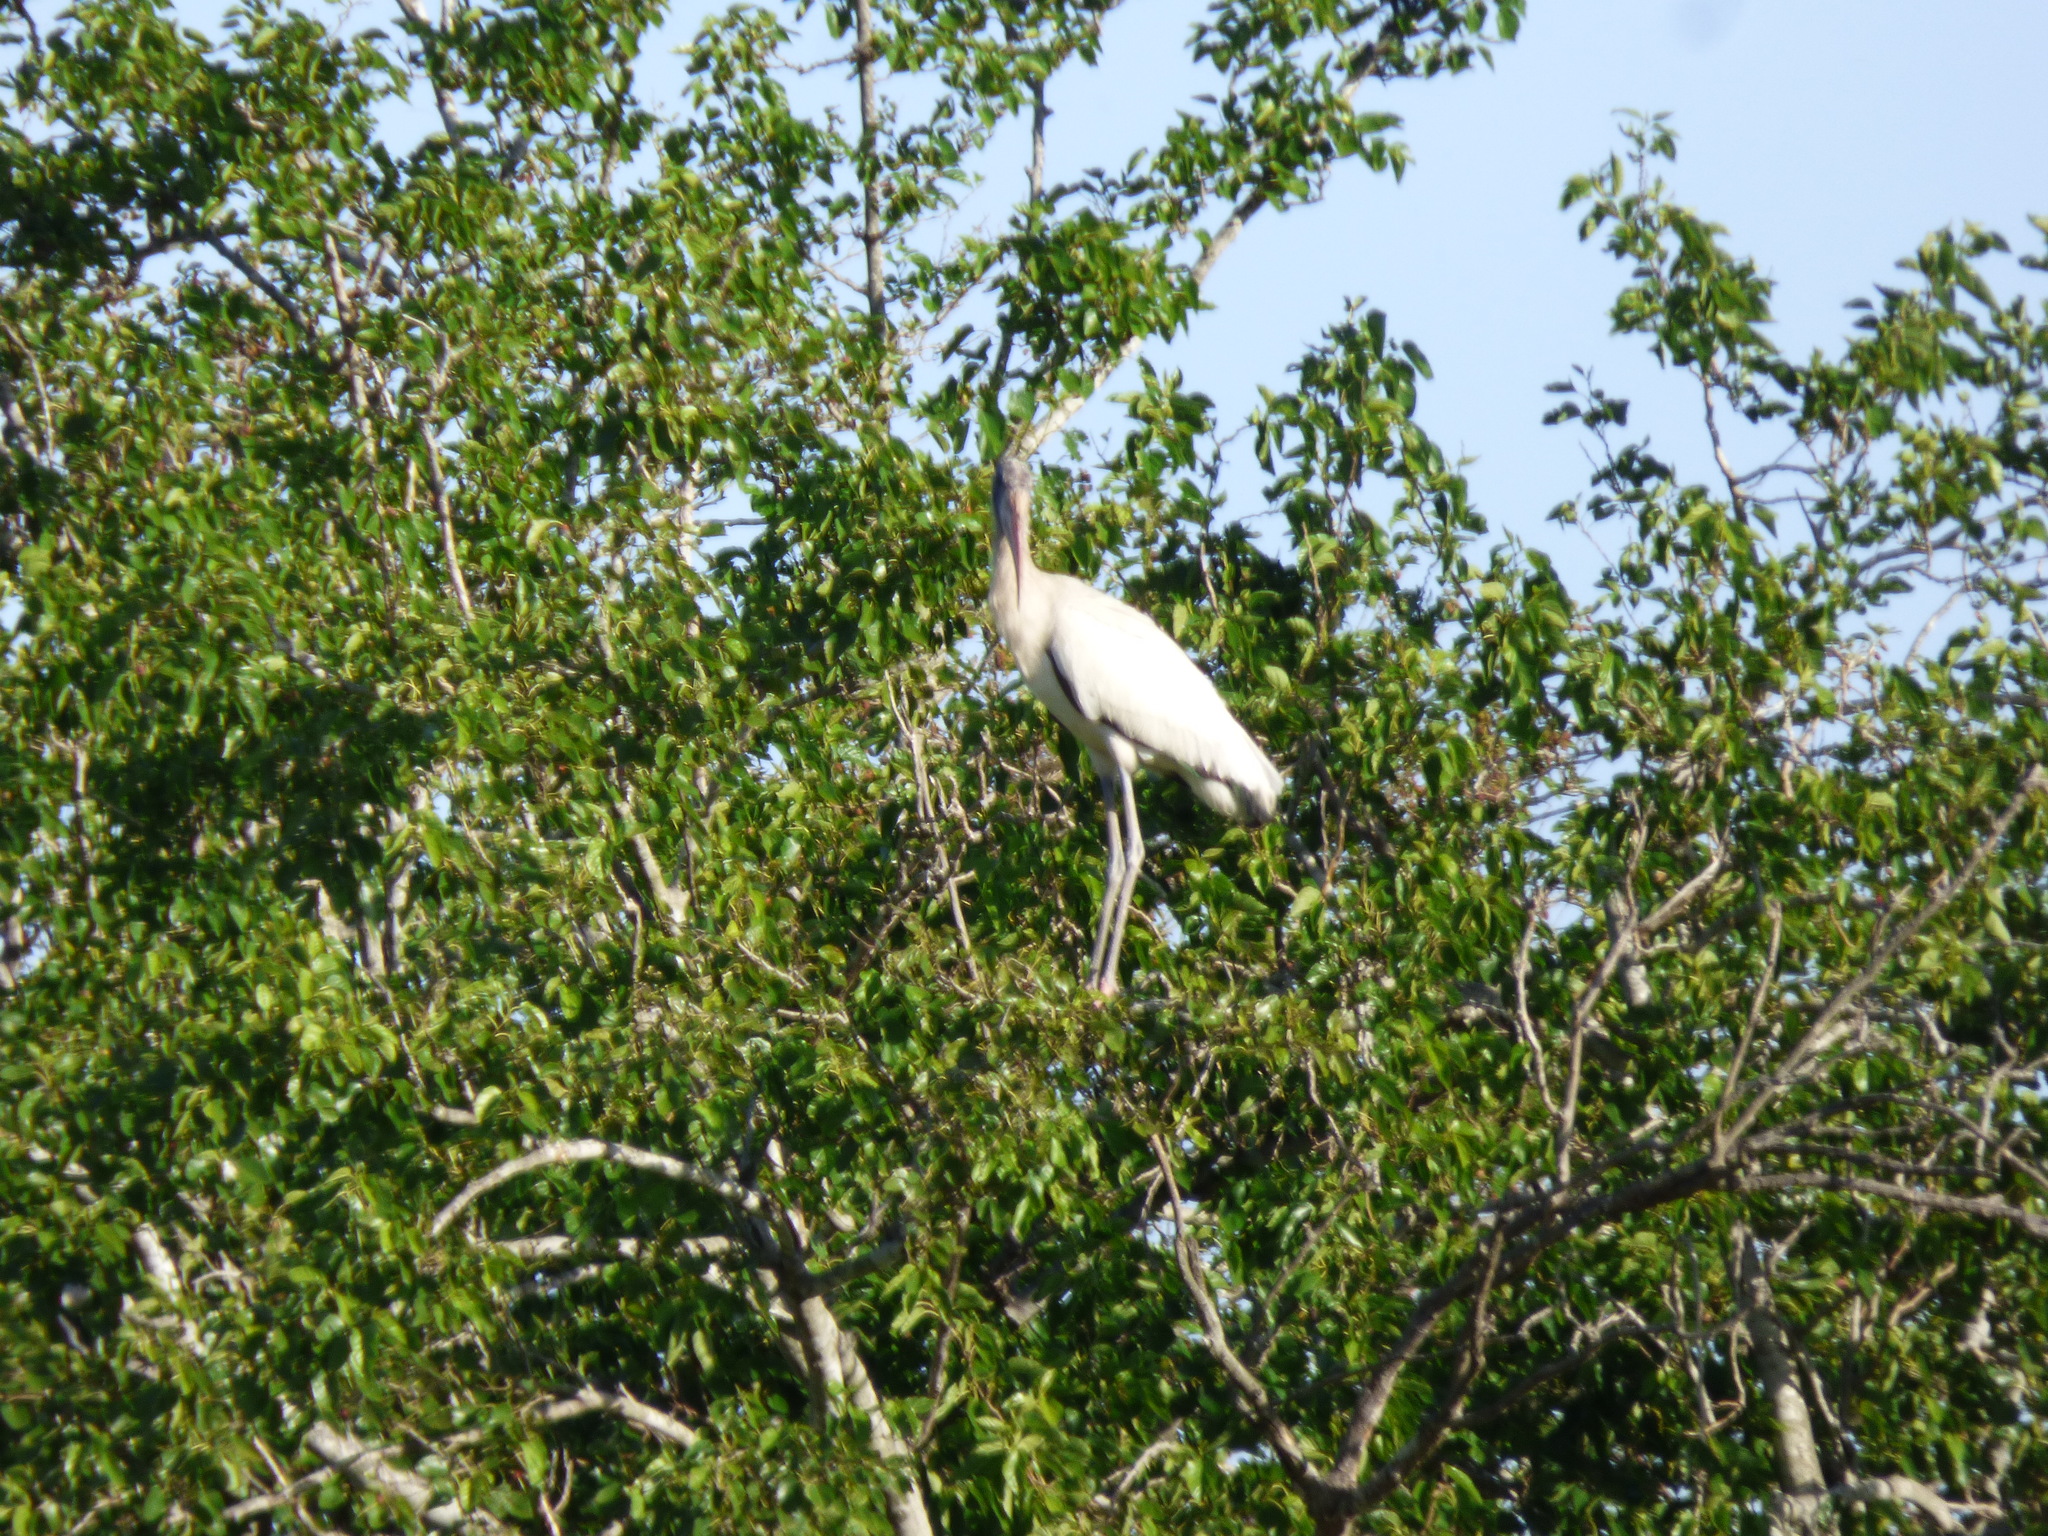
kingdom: Animalia
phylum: Chordata
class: Aves
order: Ciconiiformes
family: Ciconiidae
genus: Mycteria
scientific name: Mycteria americana
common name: Wood stork
